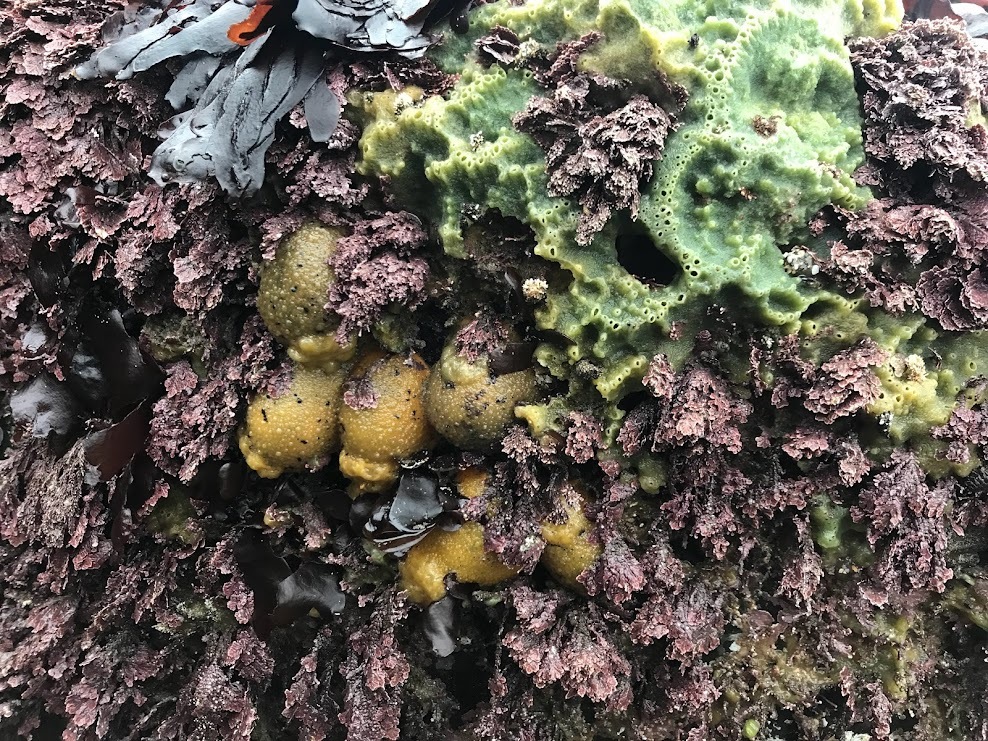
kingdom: Animalia
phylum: Mollusca
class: Gastropoda
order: Nudibranchia
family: Dorididae
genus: Doris
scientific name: Doris montereyensis
